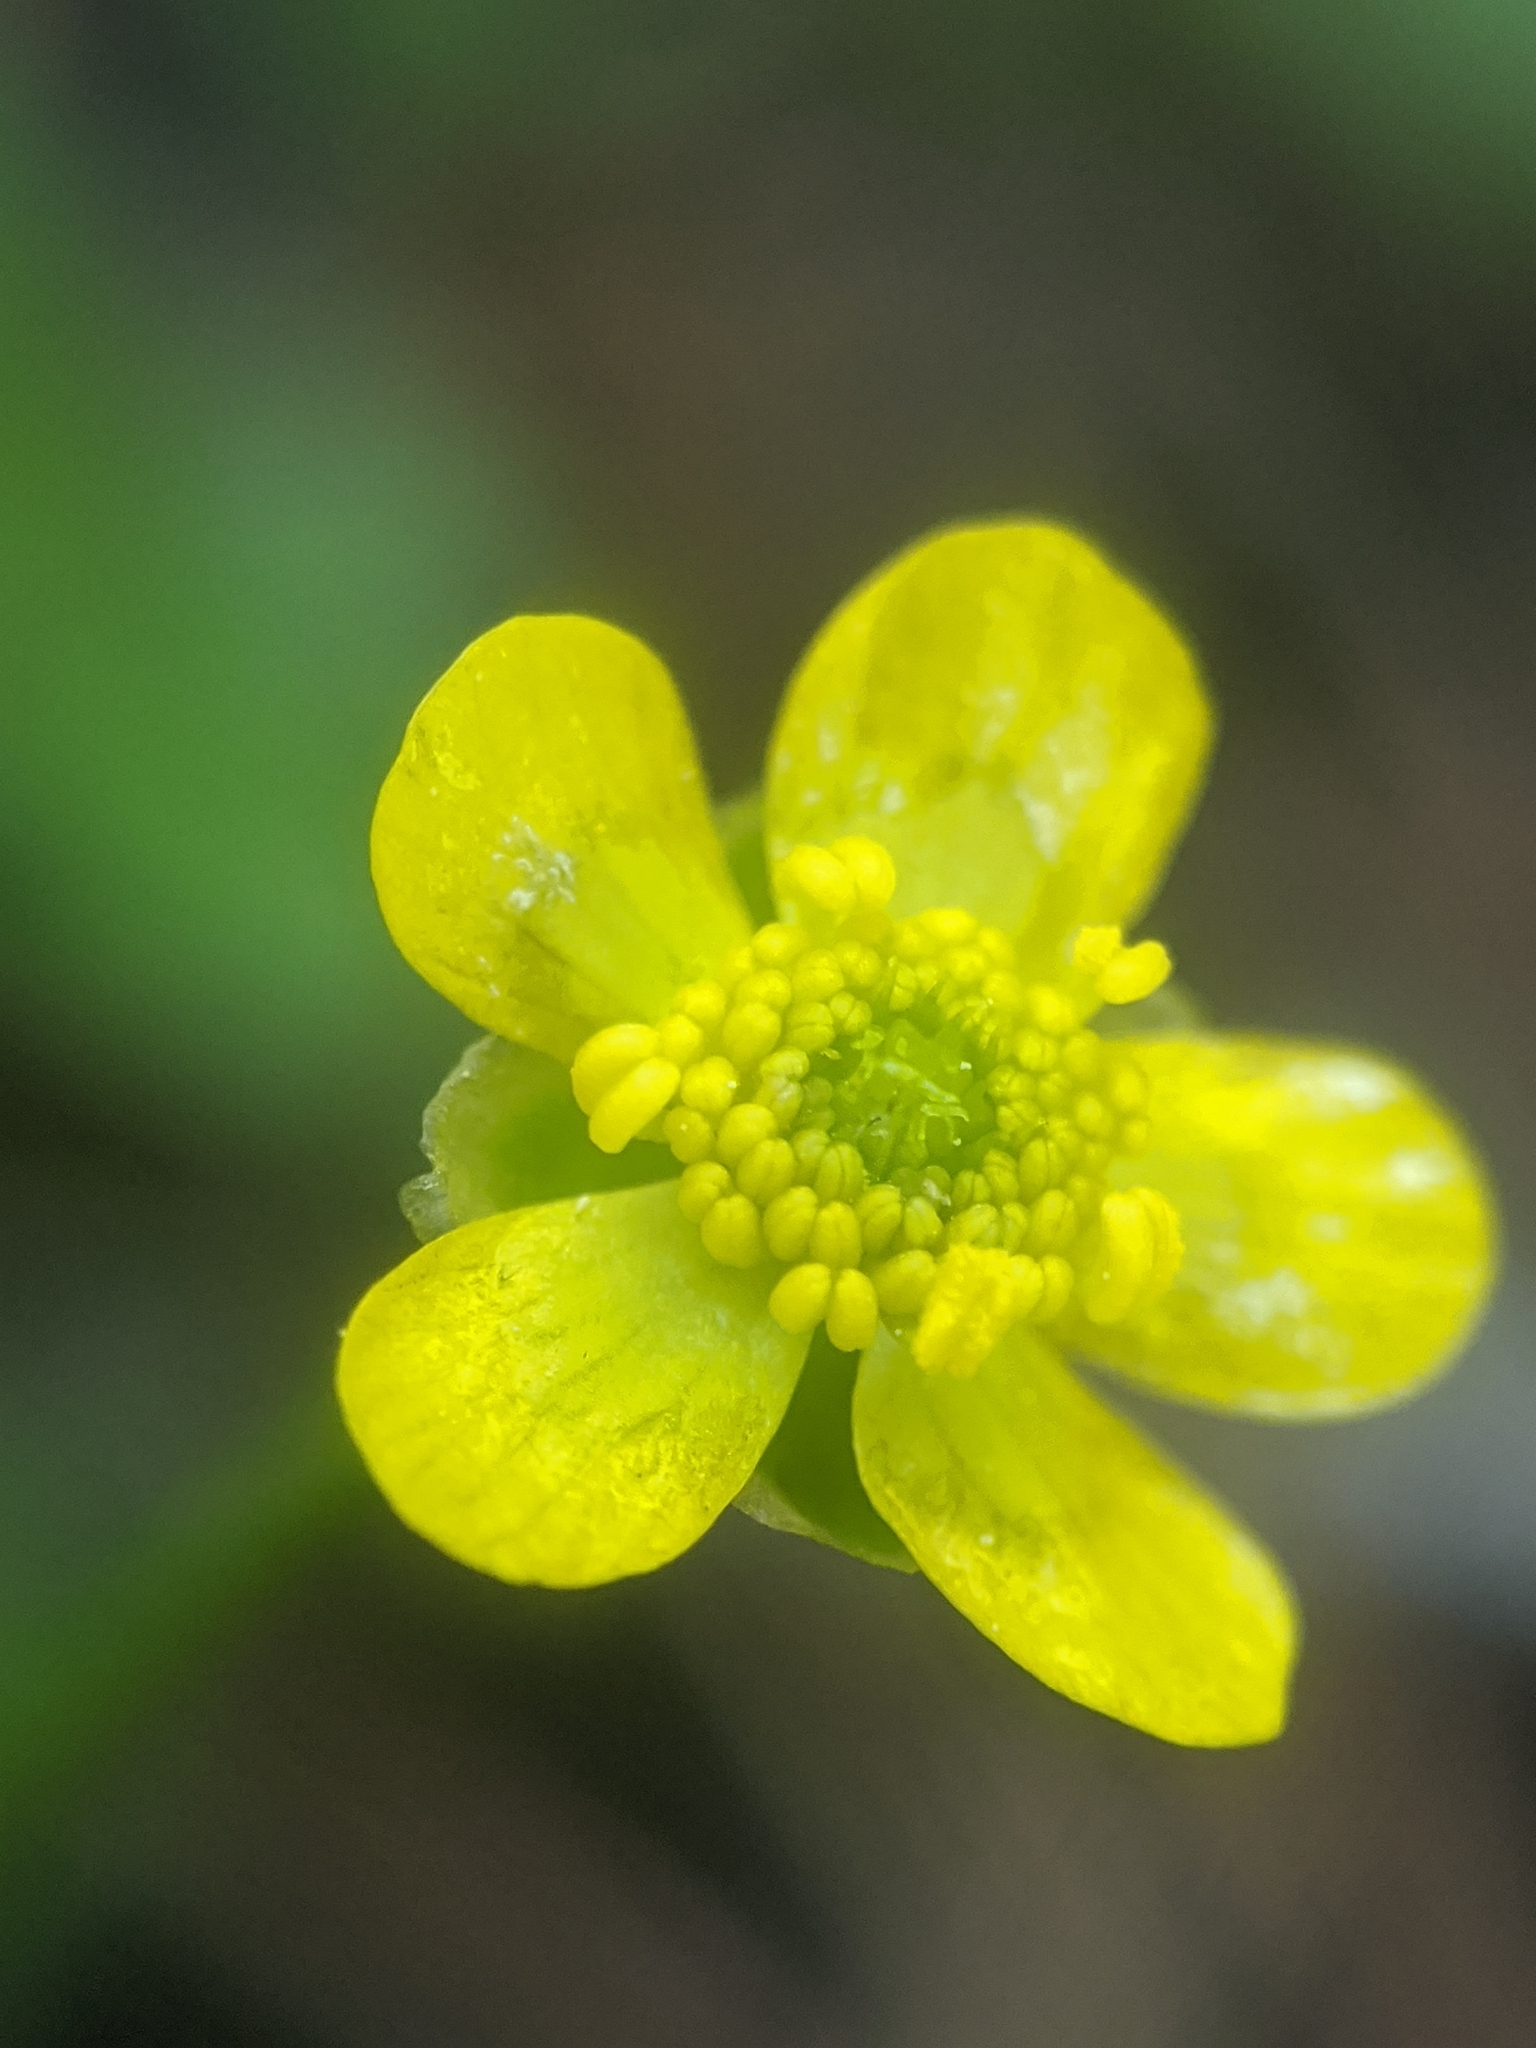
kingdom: Plantae
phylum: Tracheophyta
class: Magnoliopsida
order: Ranunculales
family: Ranunculaceae
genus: Ranunculus
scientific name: Ranunculus alismifolius
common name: Plantain-leaved buttercup
